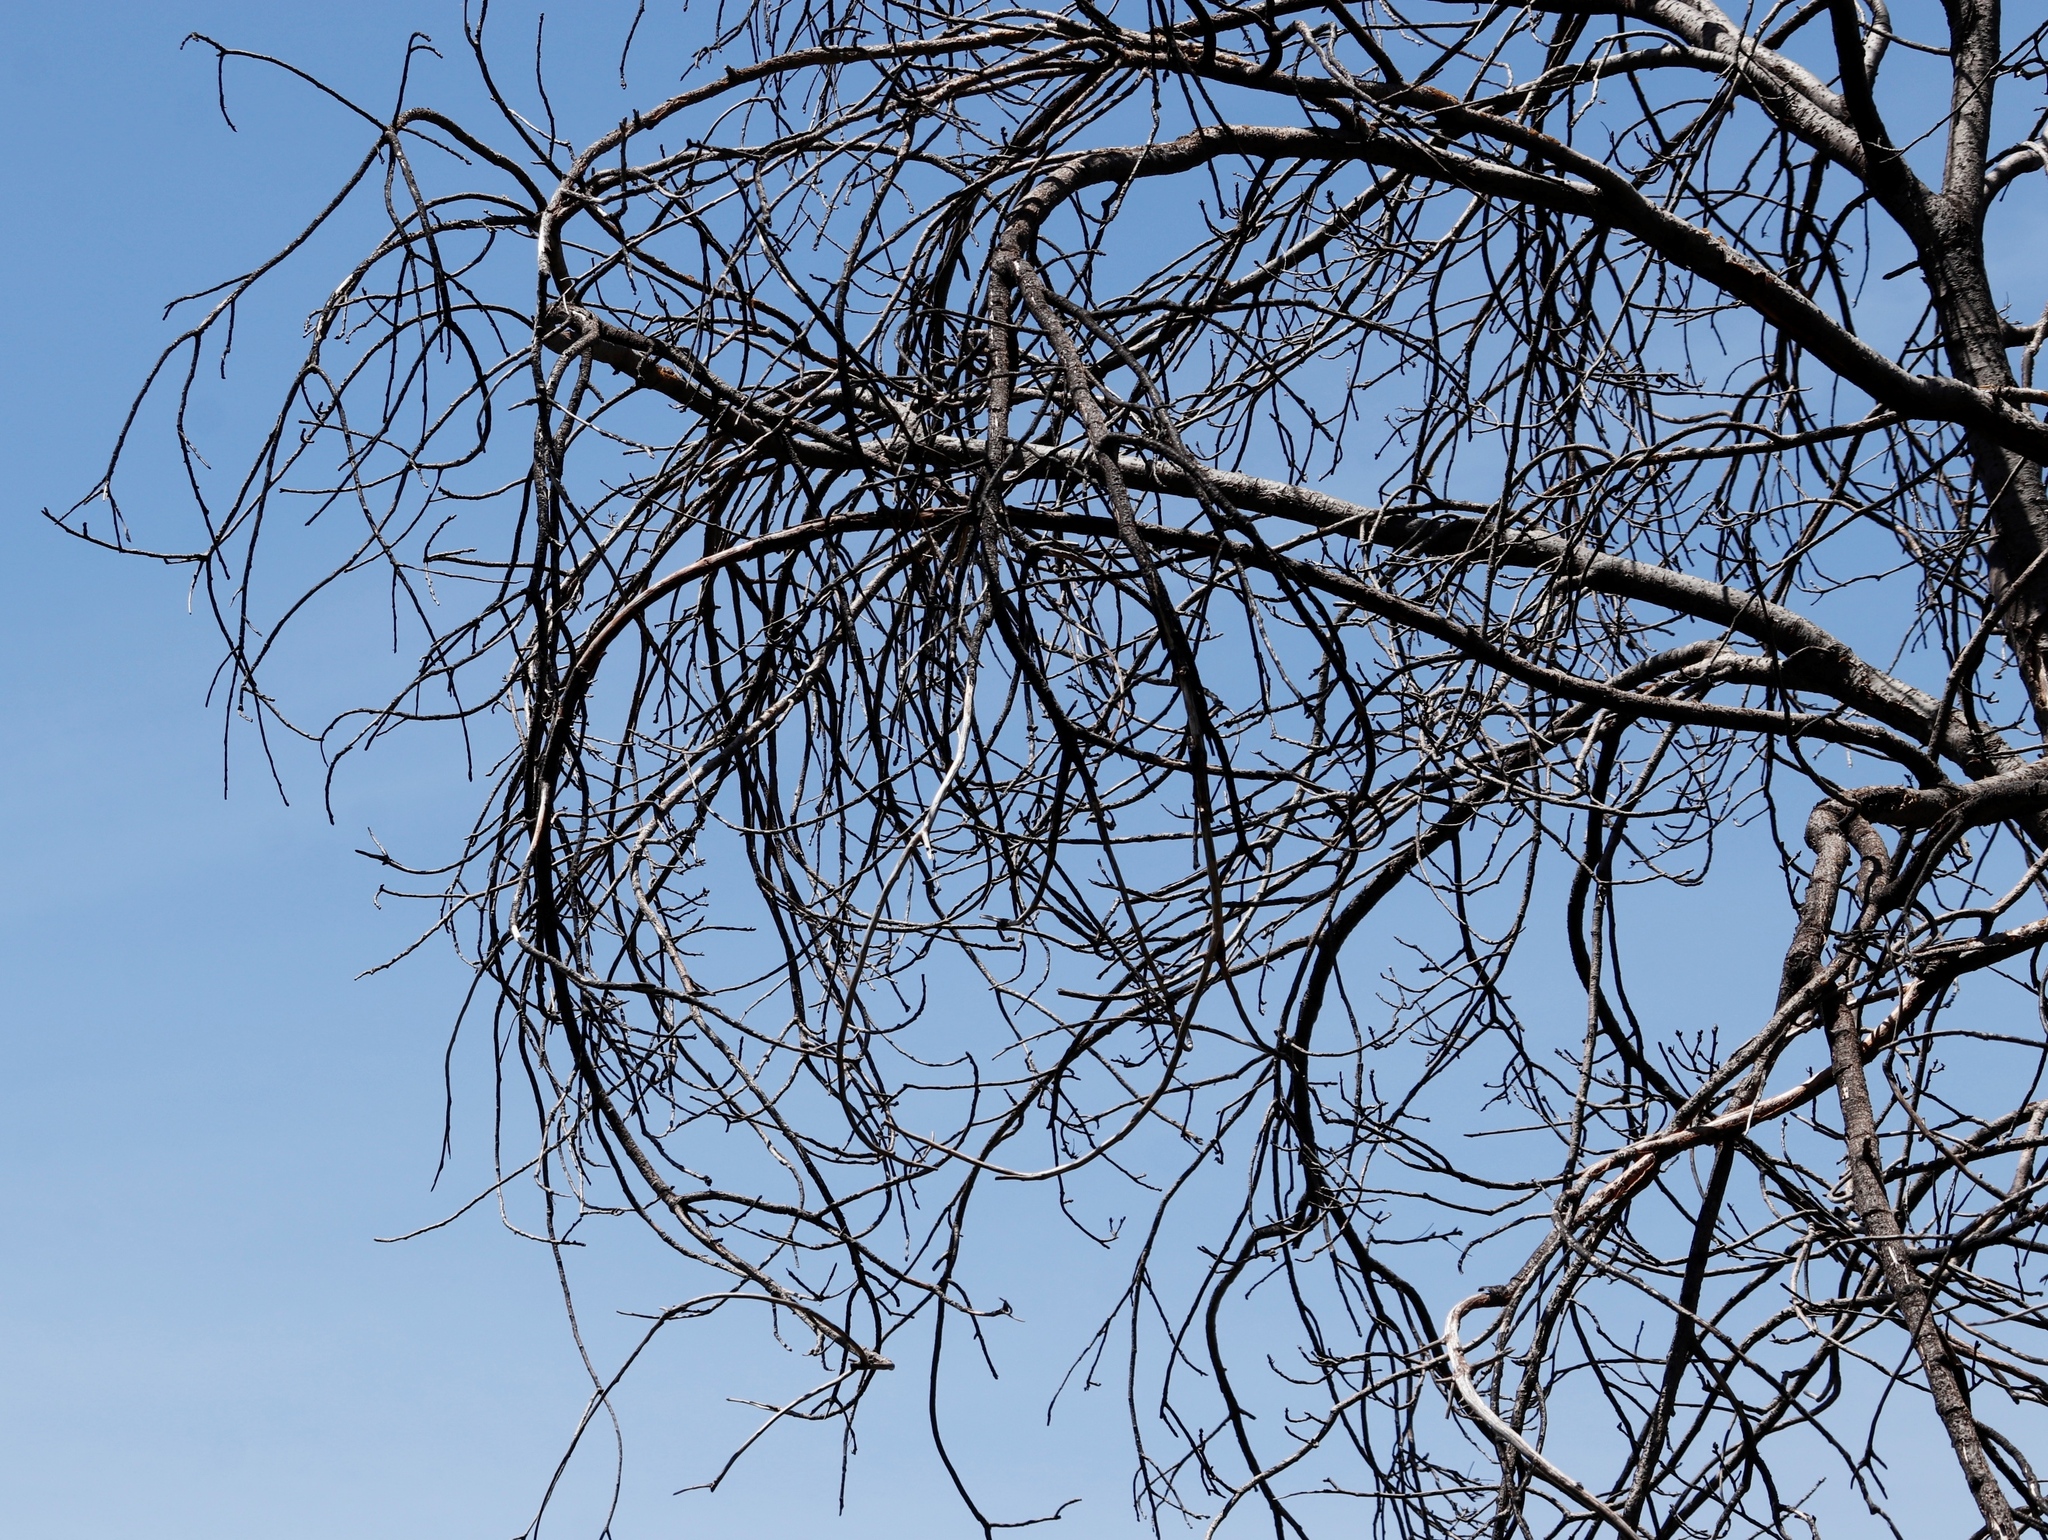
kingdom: Plantae
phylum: Tracheophyta
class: Magnoliopsida
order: Fagales
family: Fagaceae
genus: Quercus
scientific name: Quercus robur
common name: Pedunculate oak
